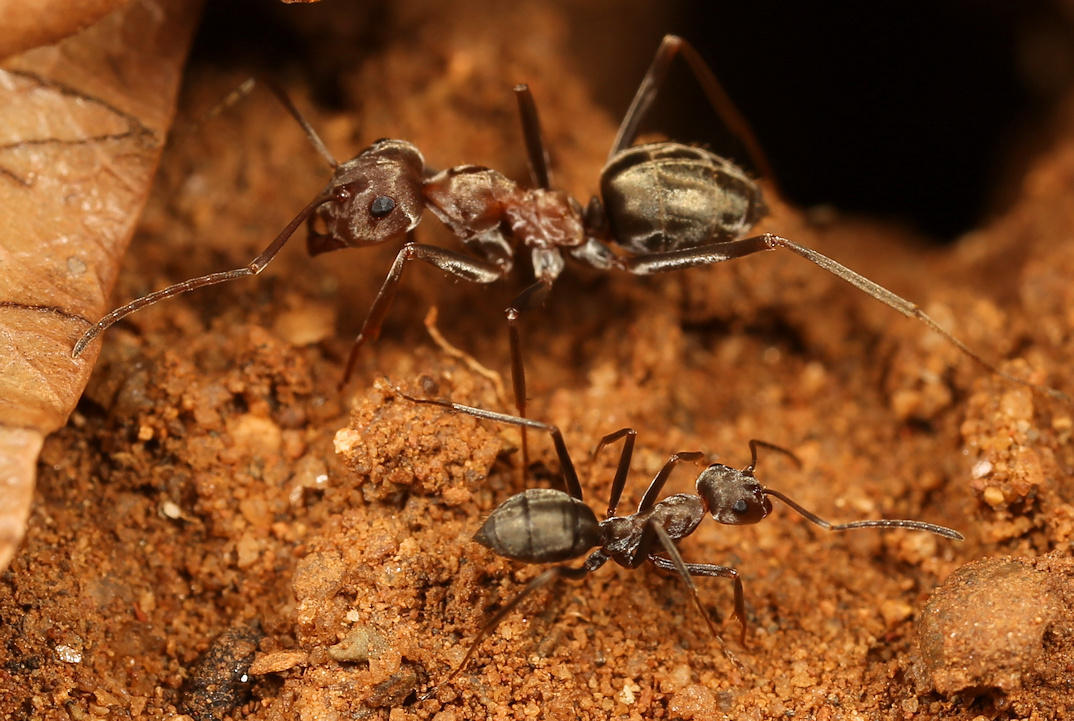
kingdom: Animalia
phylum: Arthropoda
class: Insecta
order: Hymenoptera
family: Formicidae
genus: Anoplolepis
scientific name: Anoplolepis custodiens
